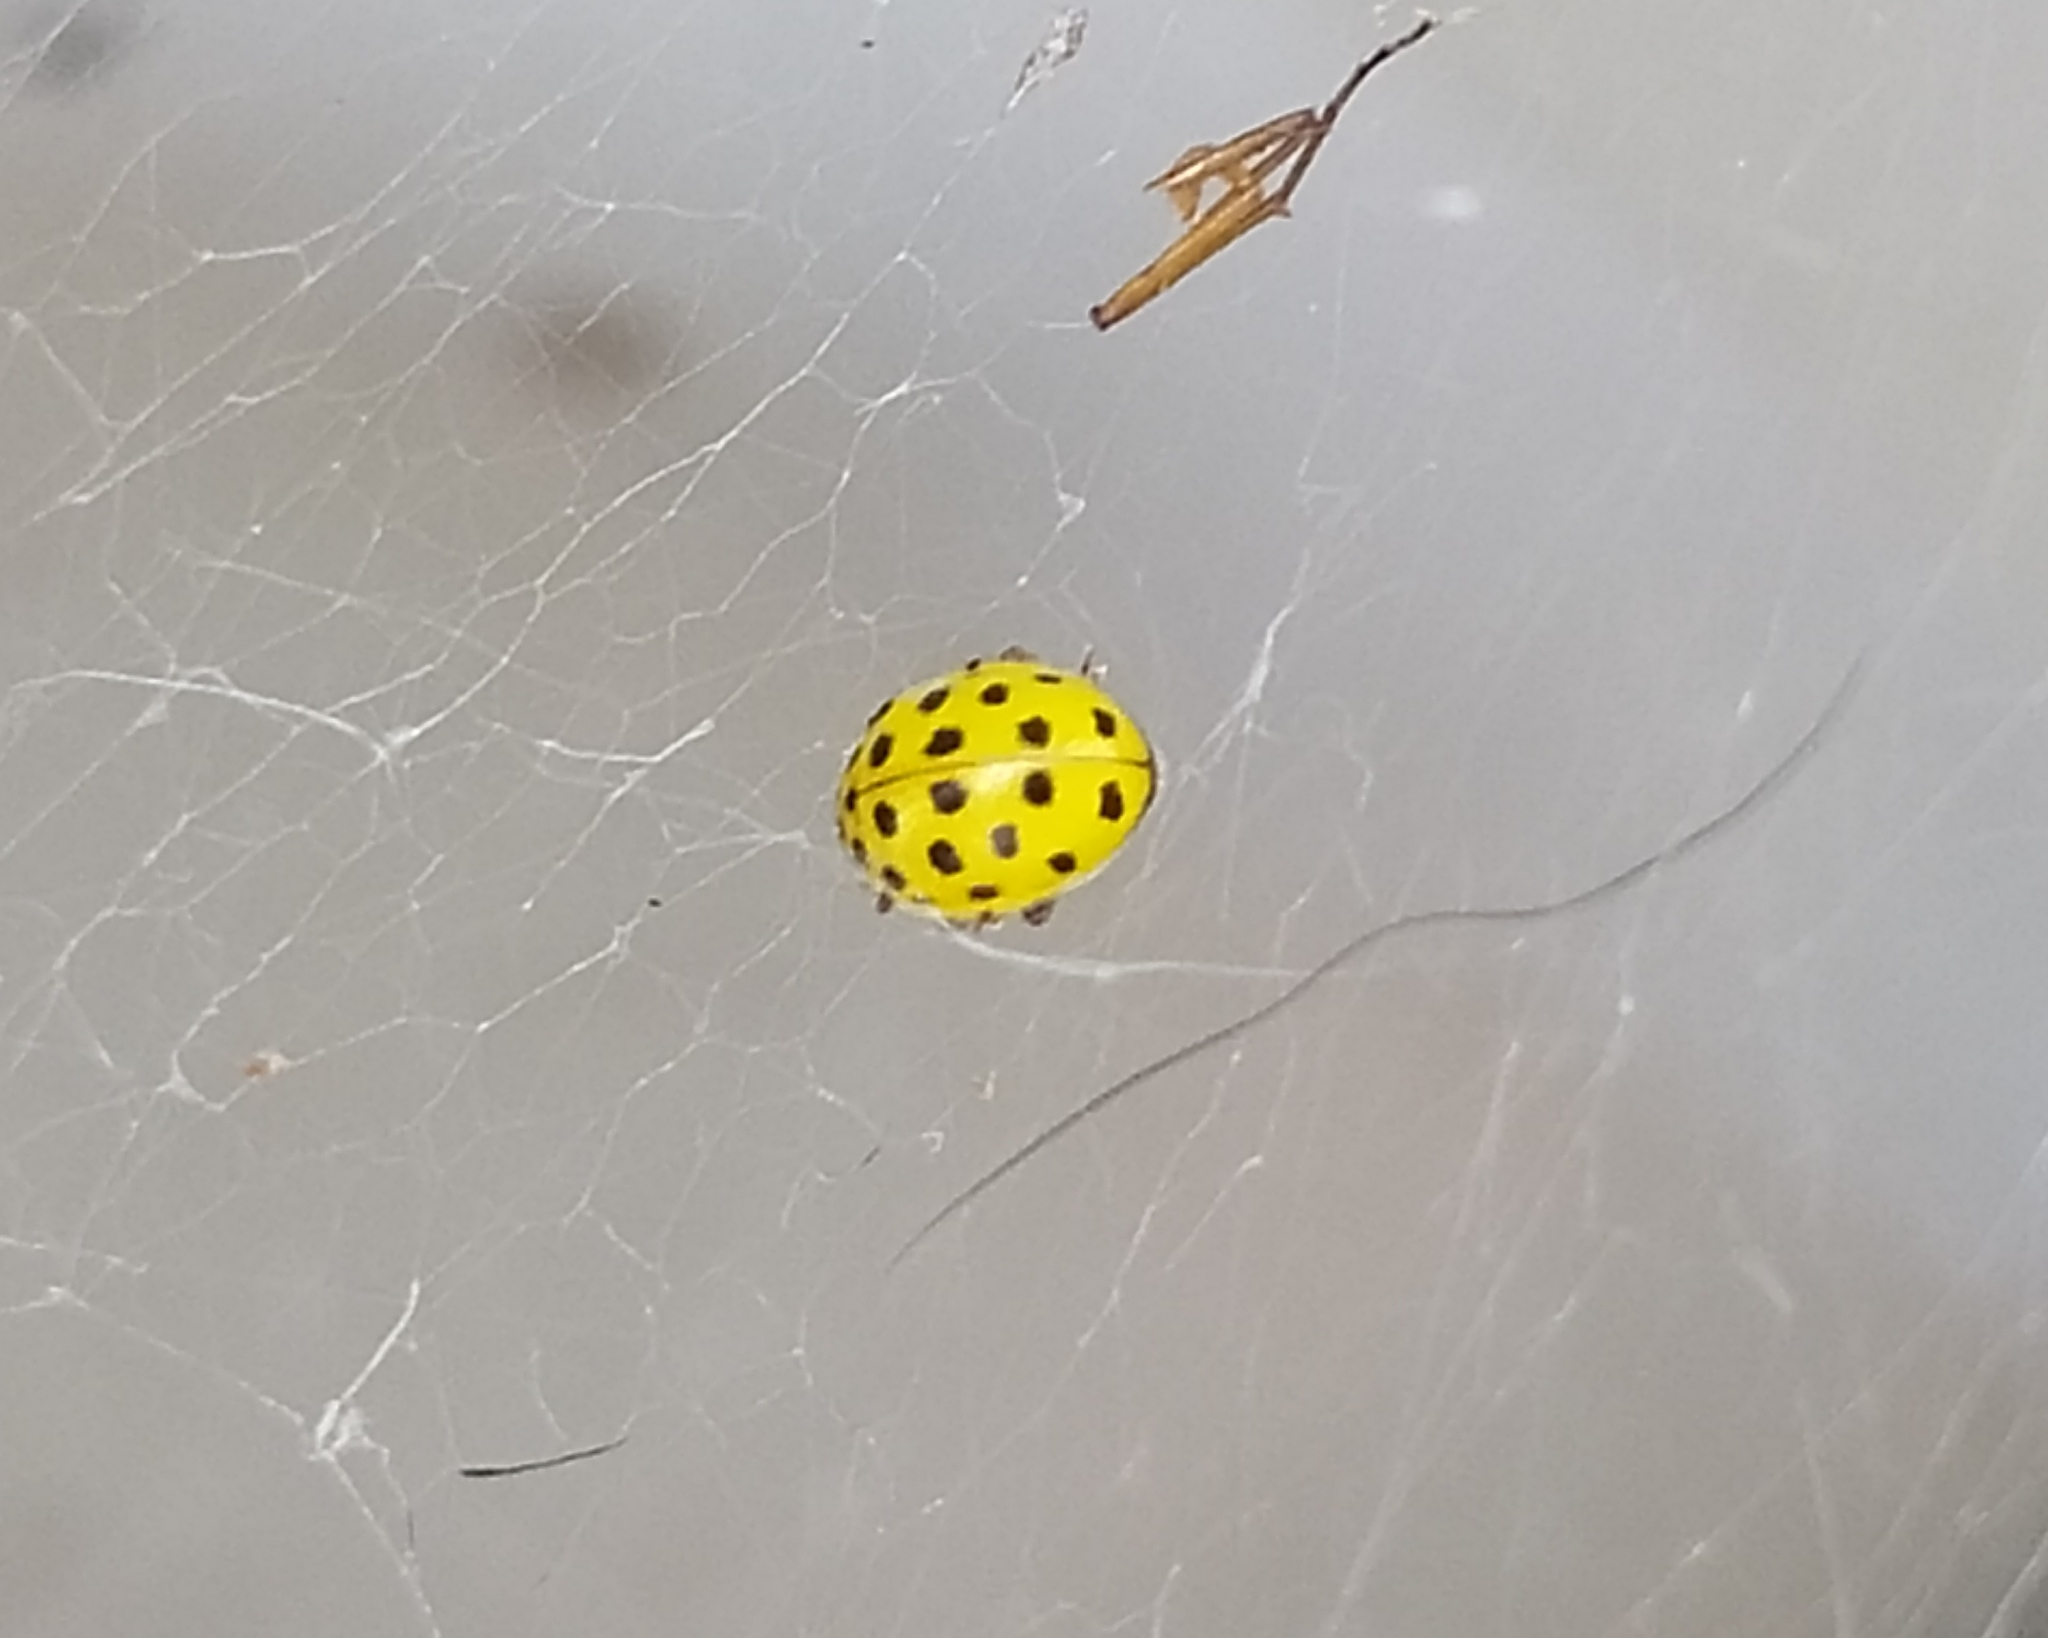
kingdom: Animalia
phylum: Arthropoda
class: Insecta
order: Coleoptera
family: Coccinellidae
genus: Psyllobora
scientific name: Psyllobora vigintiduopunctata
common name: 22-spot ladybird
